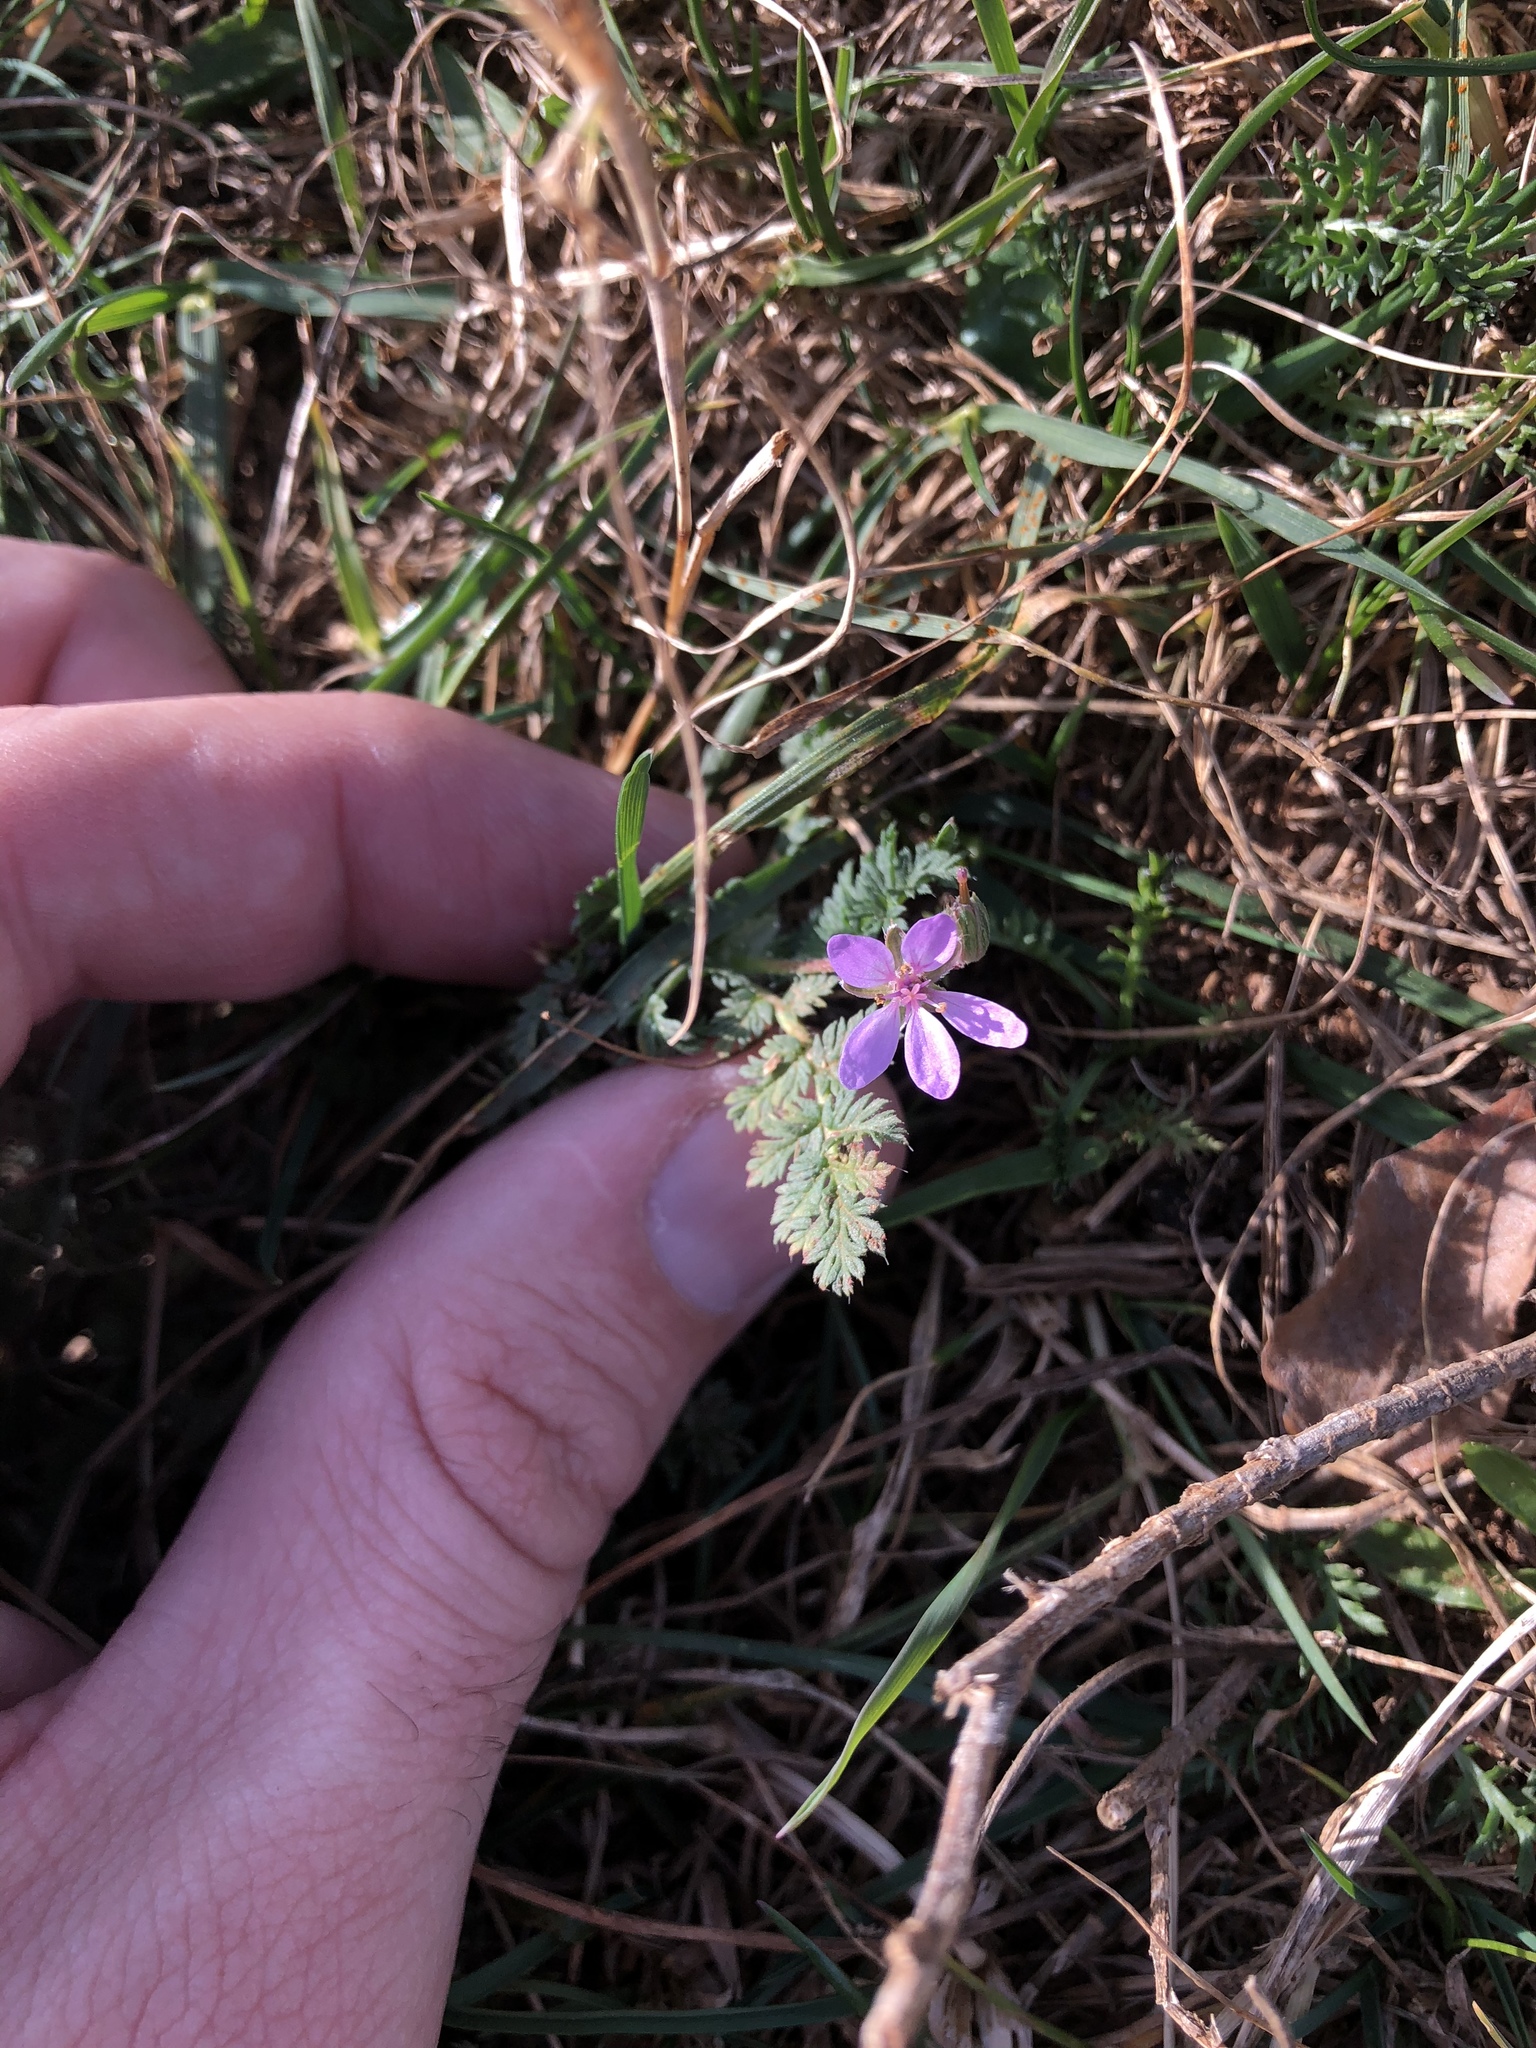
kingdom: Plantae
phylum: Tracheophyta
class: Magnoliopsida
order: Geraniales
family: Geraniaceae
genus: Erodium
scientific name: Erodium cicutarium
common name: Common stork's-bill
